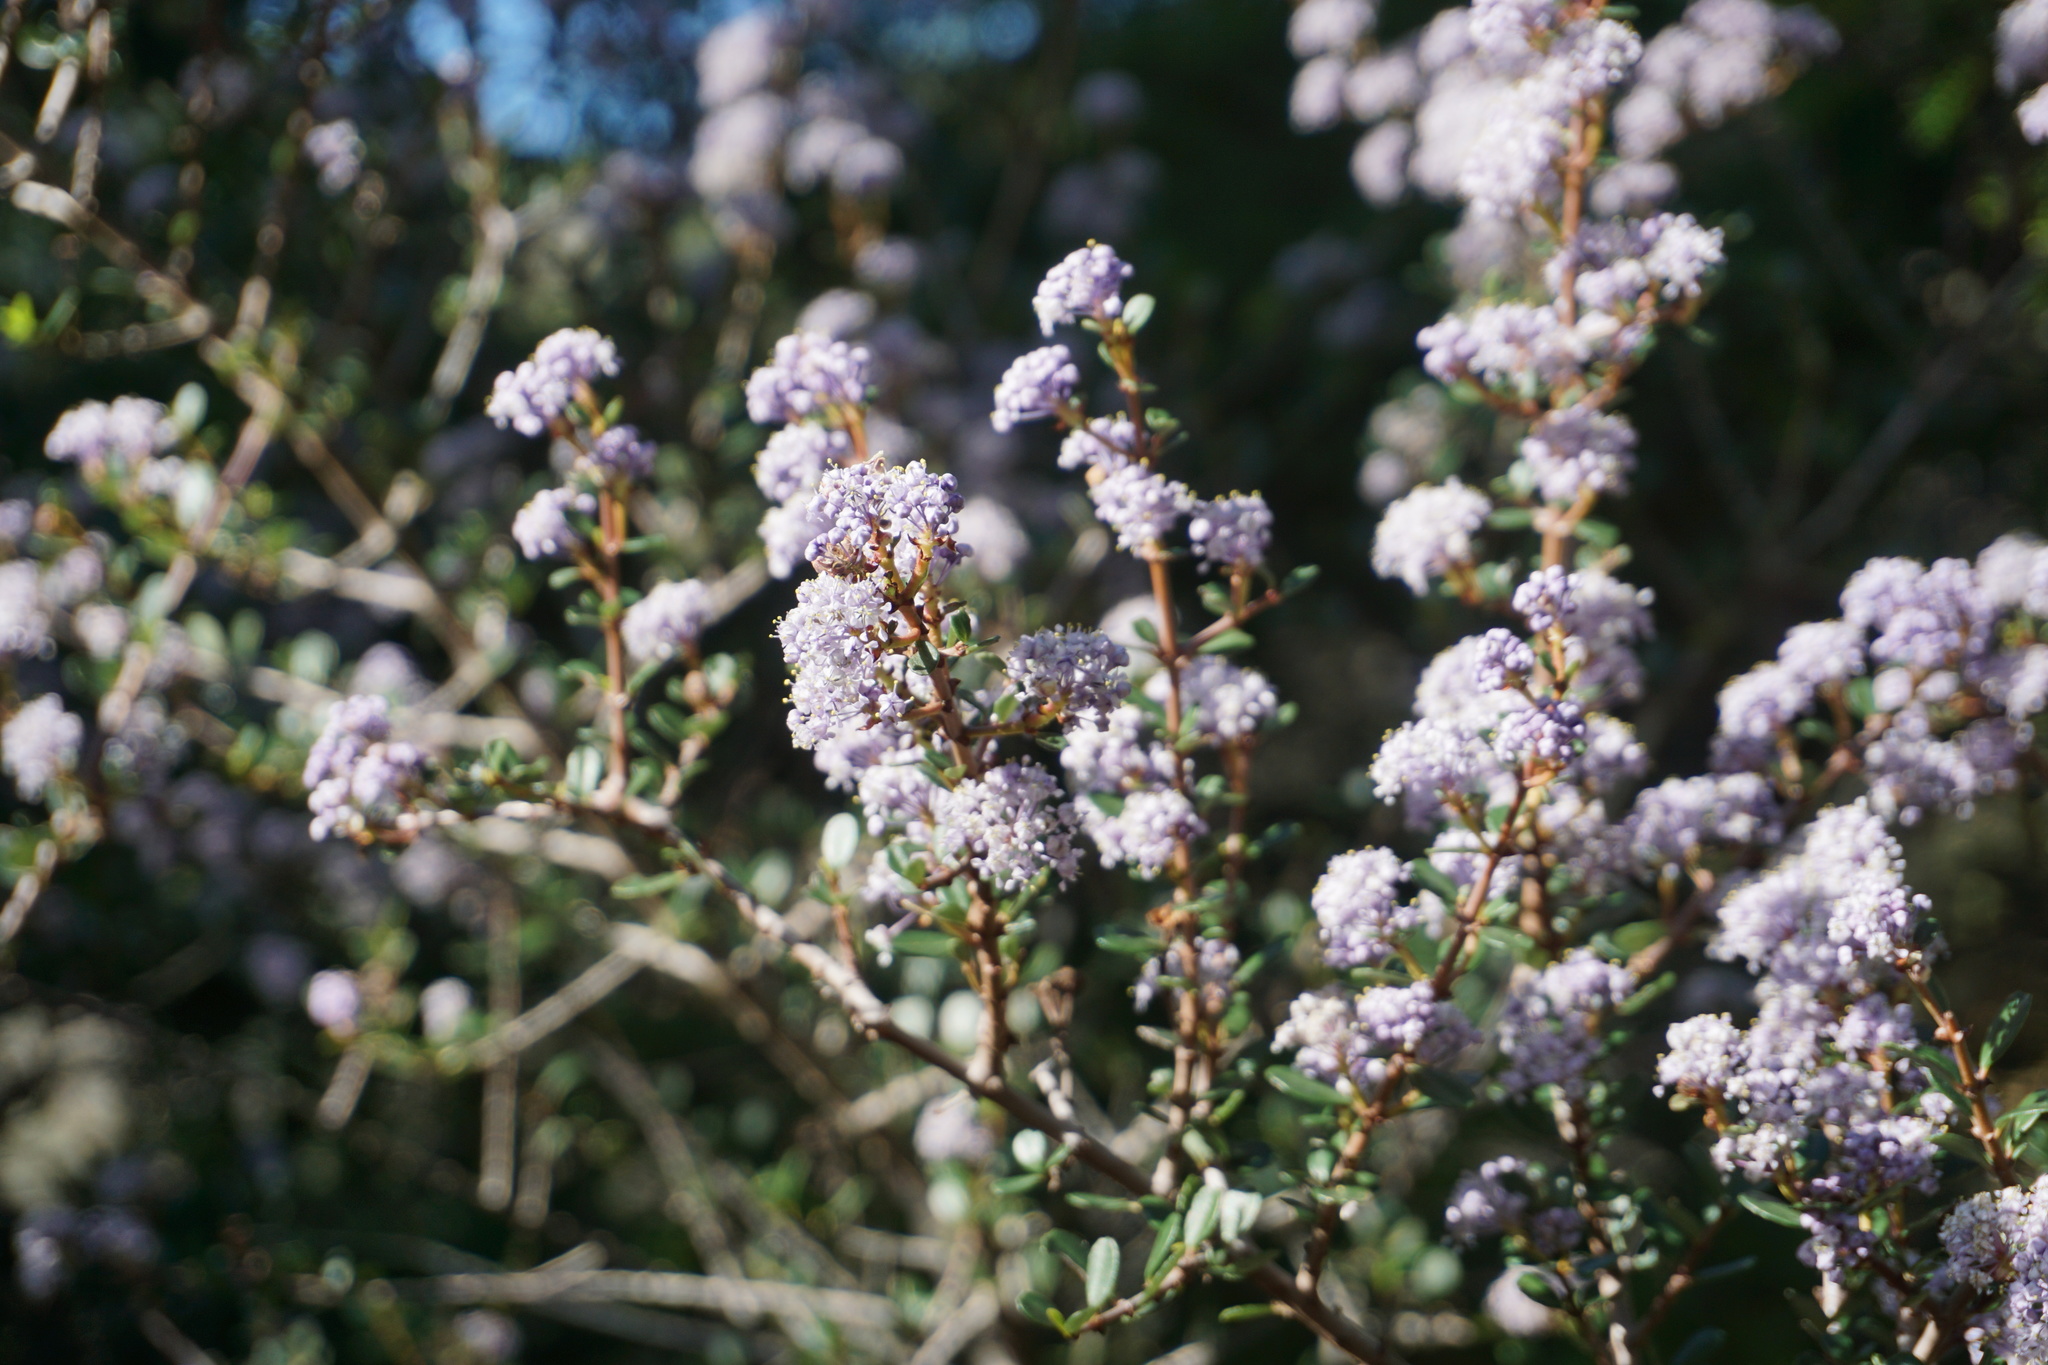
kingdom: Plantae
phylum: Tracheophyta
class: Magnoliopsida
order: Rosales
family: Rhamnaceae
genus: Ceanothus
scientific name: Ceanothus cuneatus
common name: Cuneate ceanothus
